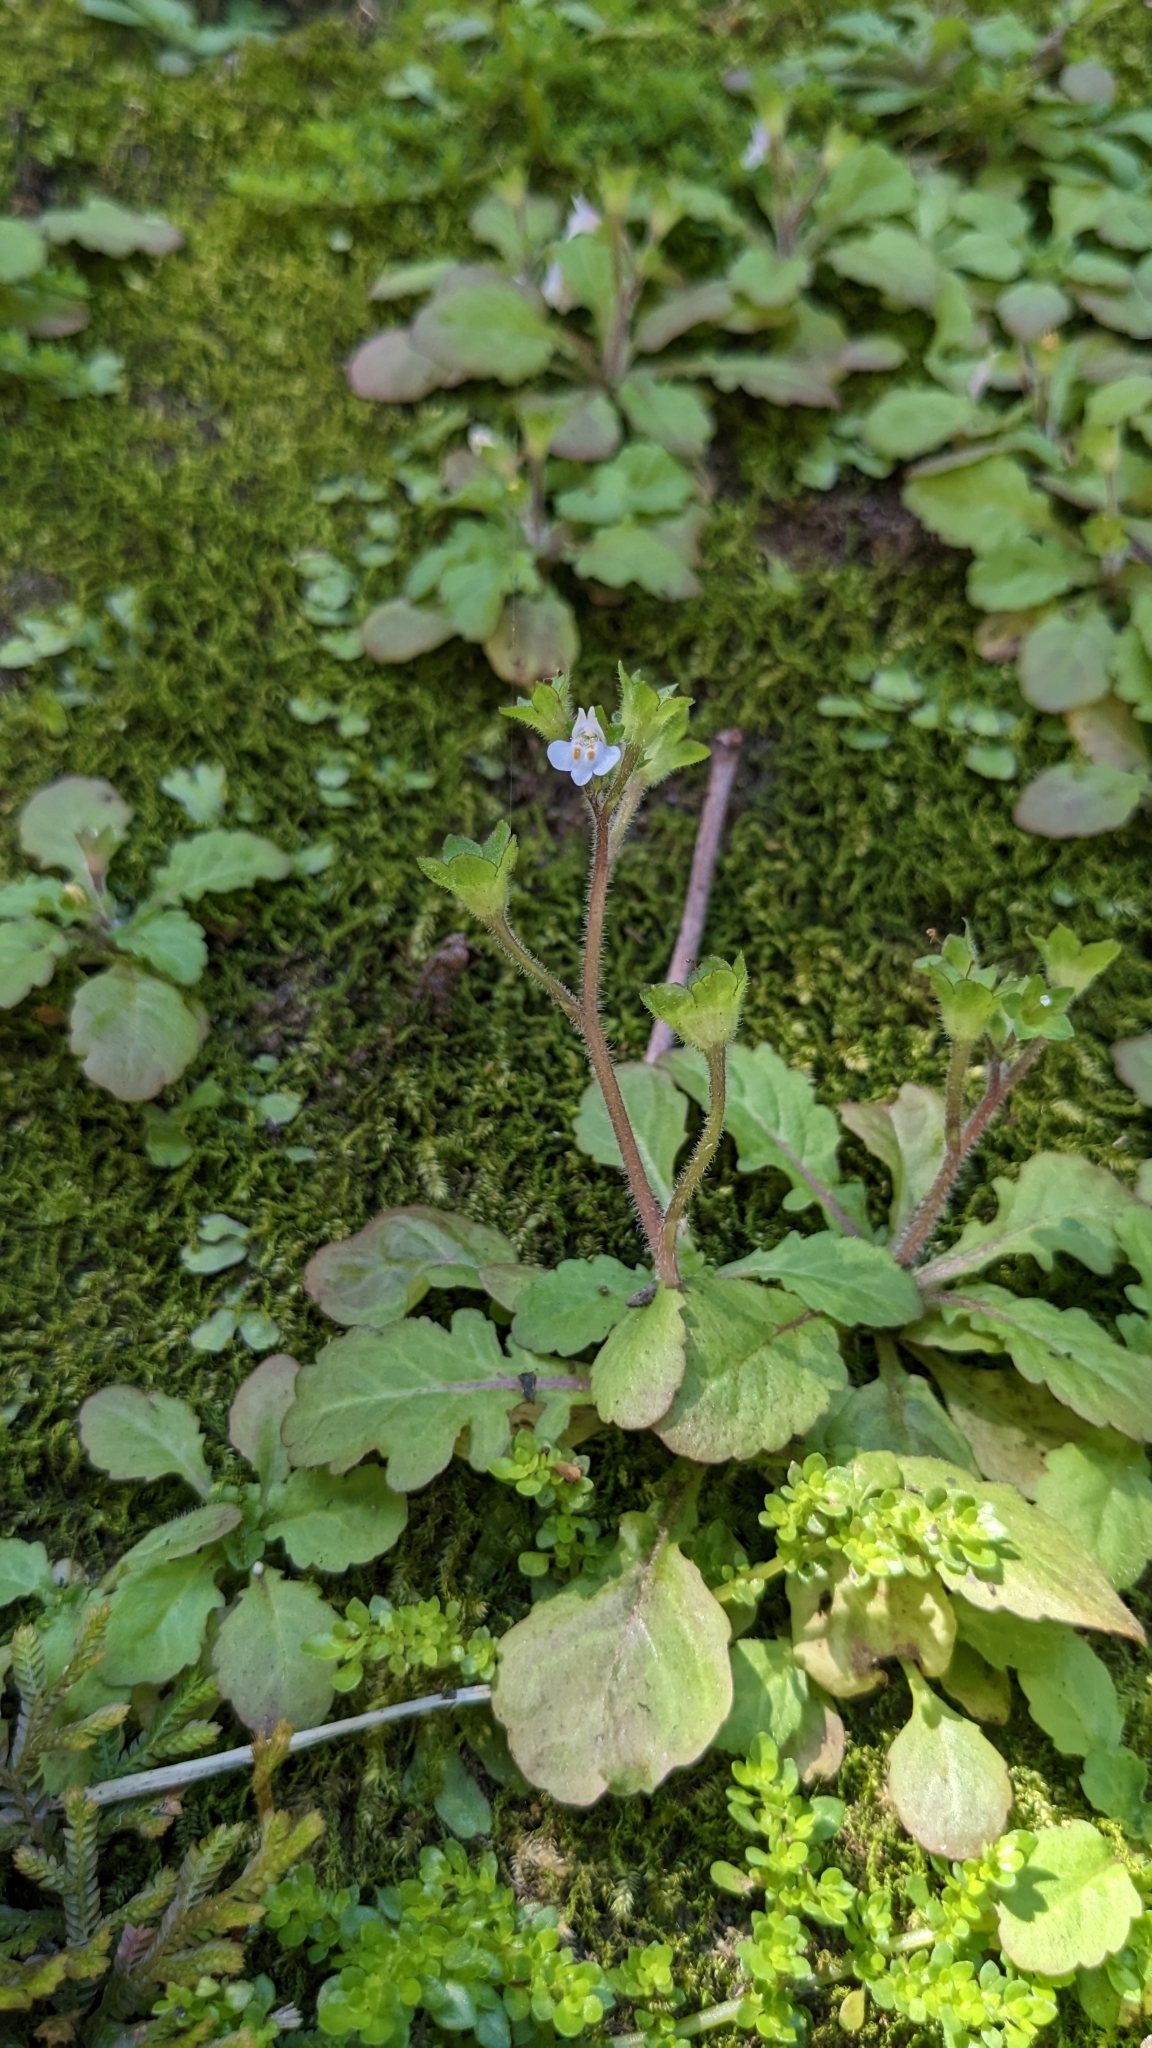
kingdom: Plantae
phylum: Tracheophyta
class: Magnoliopsida
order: Lamiales
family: Mazaceae
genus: Mazus
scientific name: Mazus goodeniifolius
